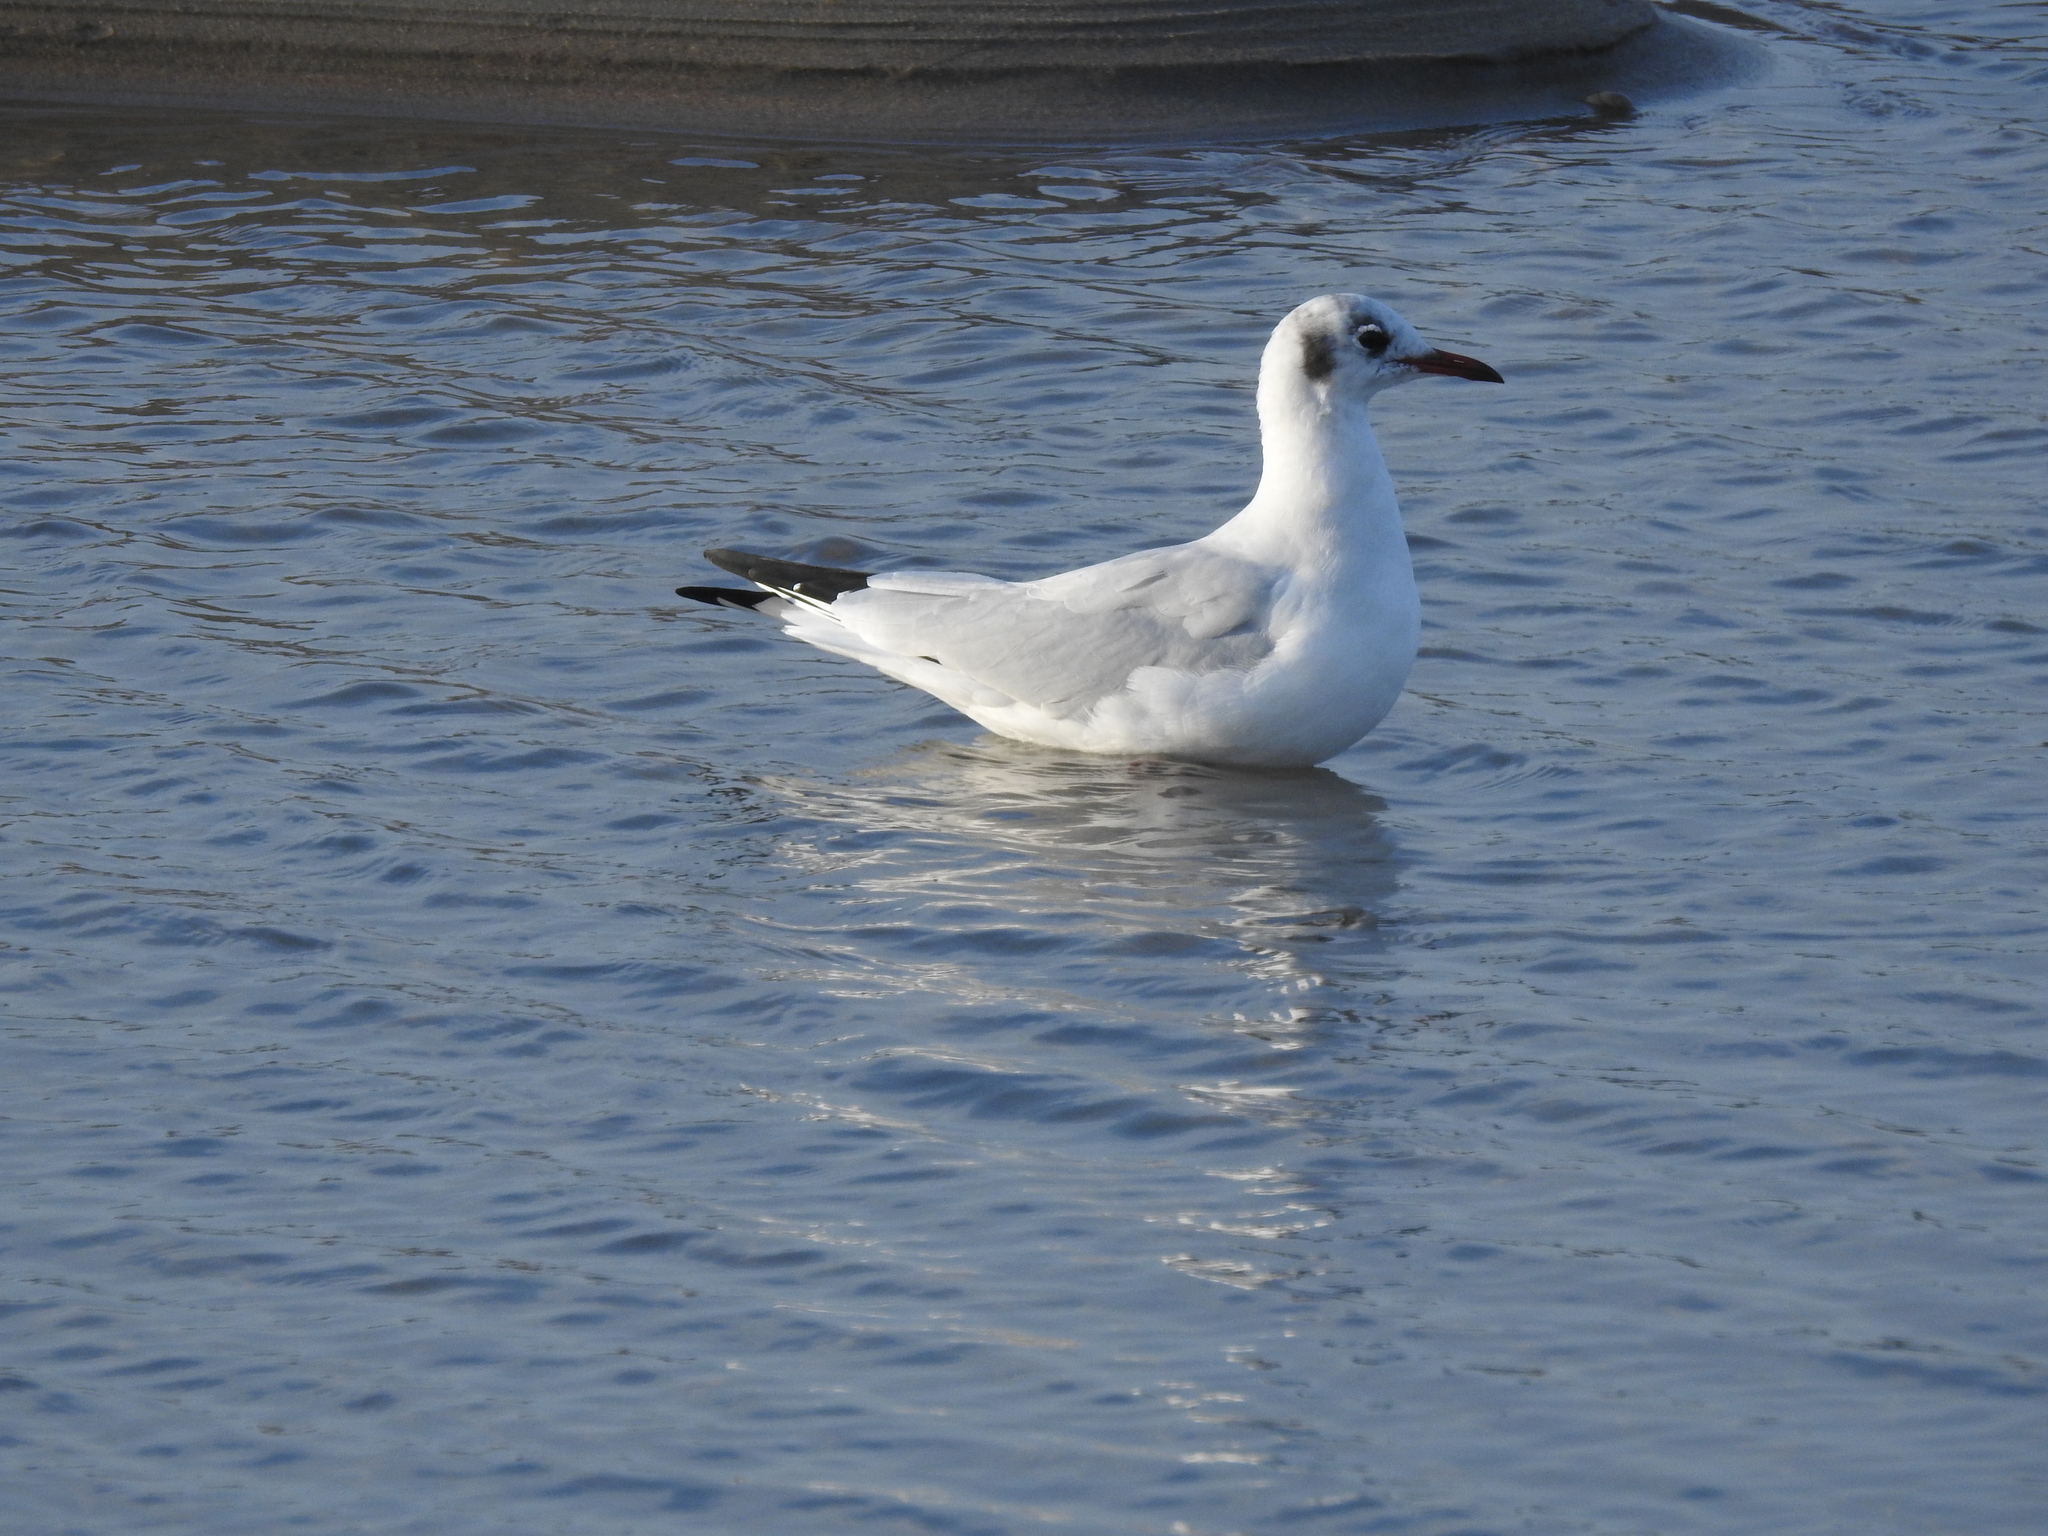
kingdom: Animalia
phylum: Chordata
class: Aves
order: Charadriiformes
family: Laridae
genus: Chroicocephalus
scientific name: Chroicocephalus ridibundus
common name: Black-headed gull
